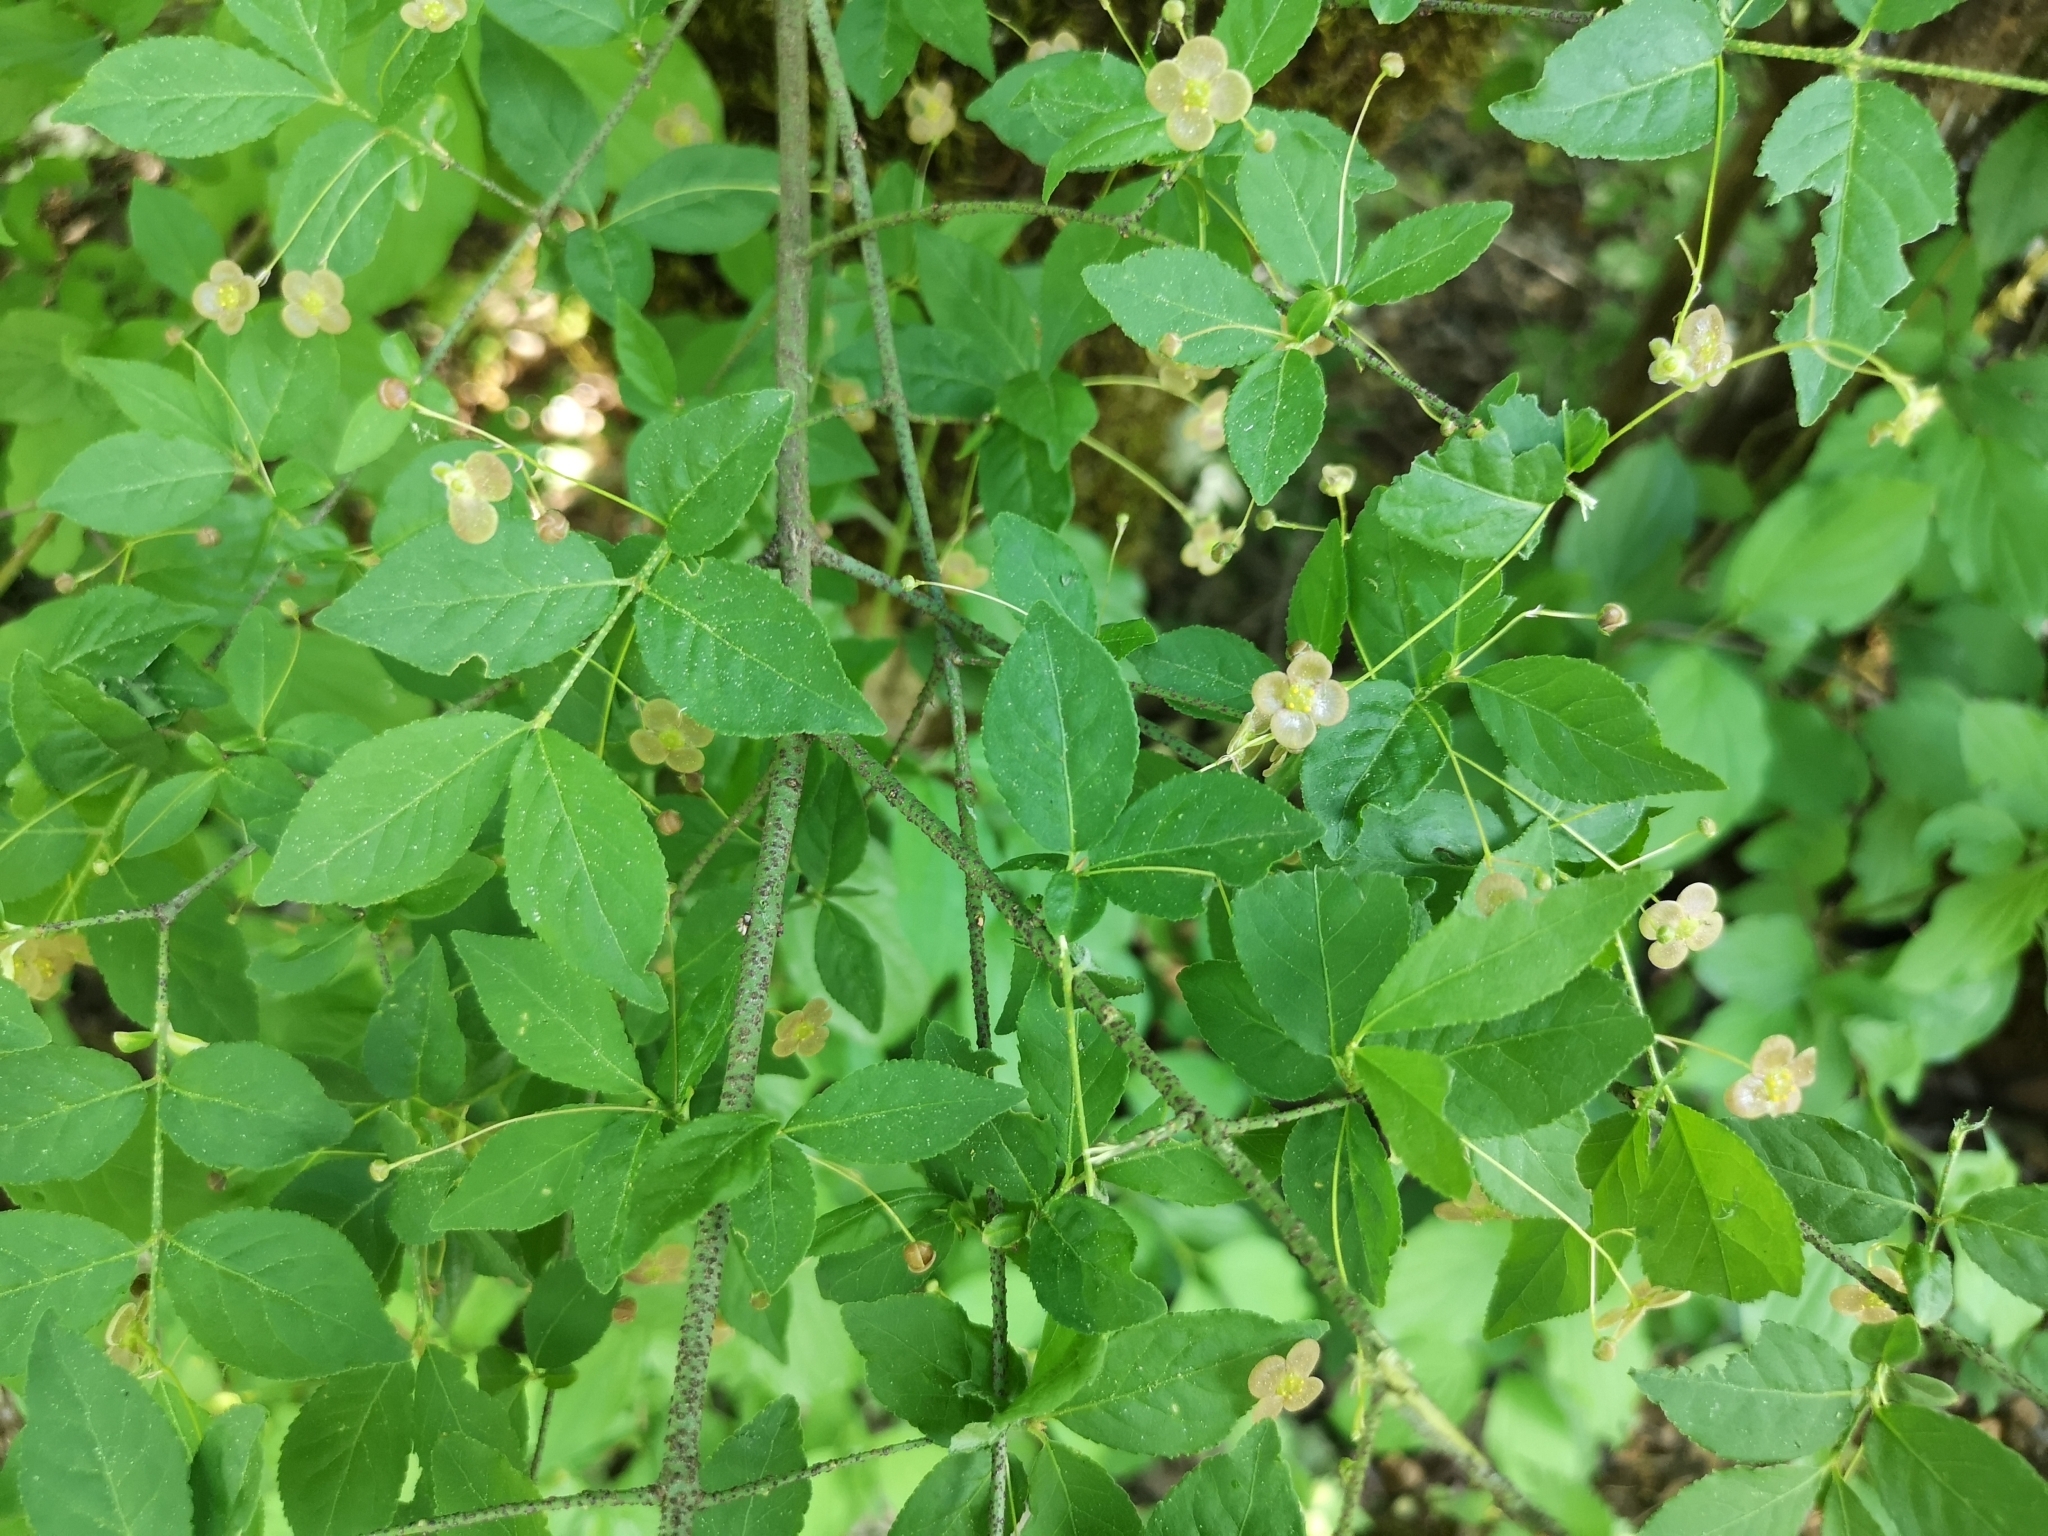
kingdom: Plantae
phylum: Tracheophyta
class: Magnoliopsida
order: Celastrales
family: Celastraceae
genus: Euonymus
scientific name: Euonymus verrucosus
